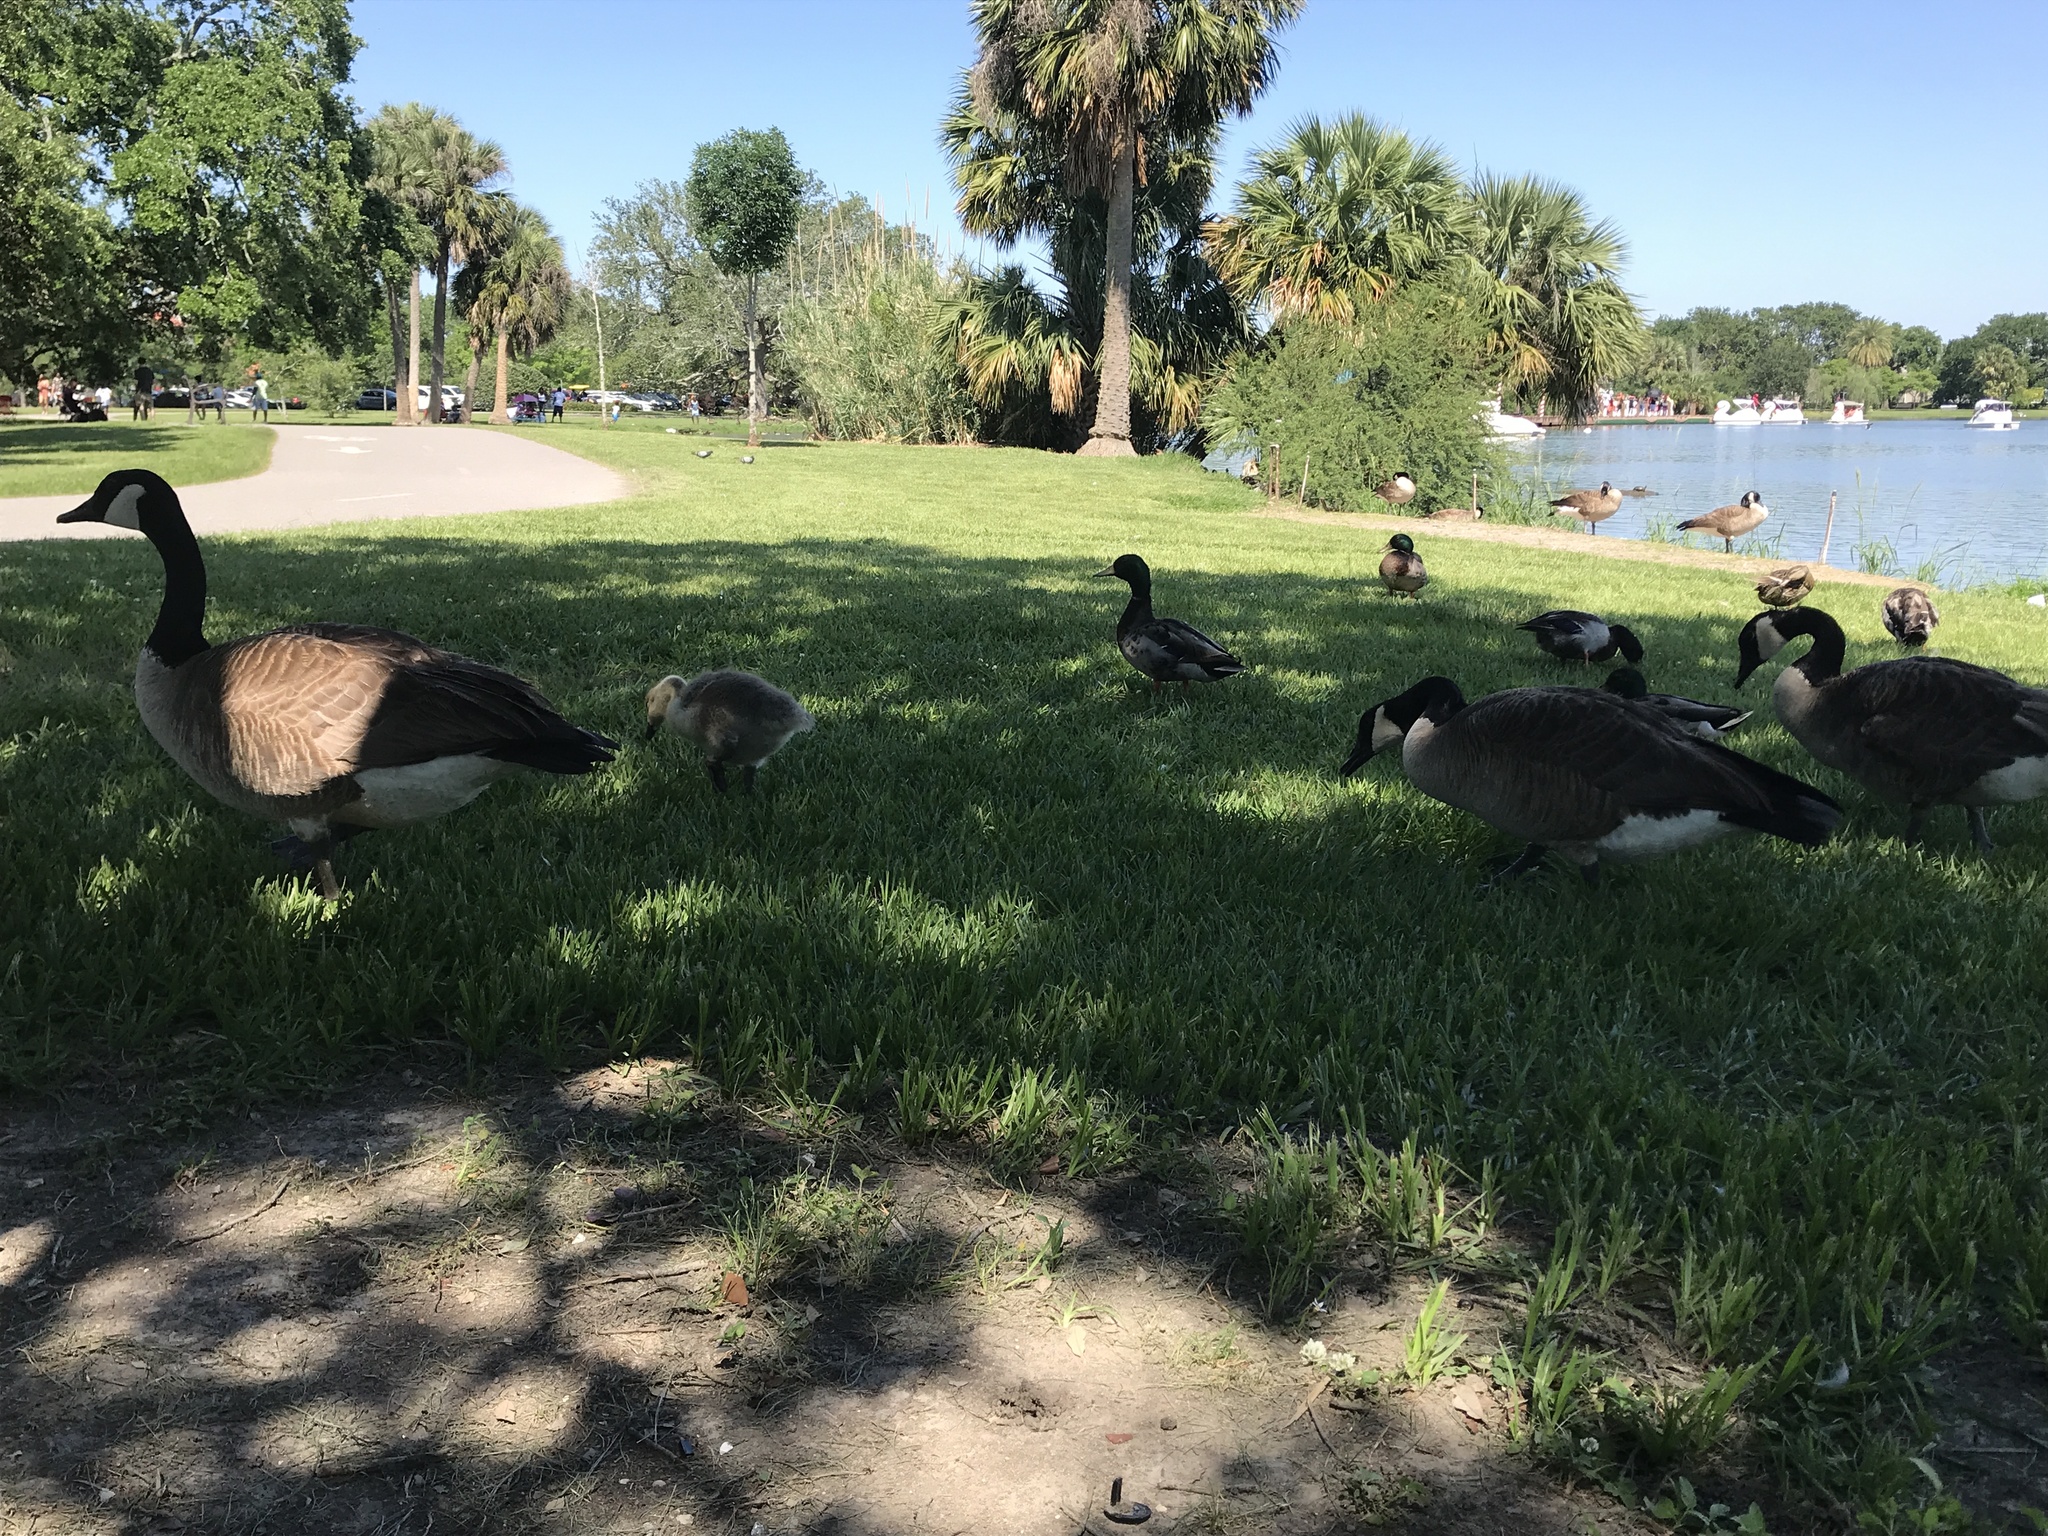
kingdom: Animalia
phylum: Chordata
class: Aves
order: Anseriformes
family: Anatidae
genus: Branta
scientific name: Branta canadensis
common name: Canada goose
